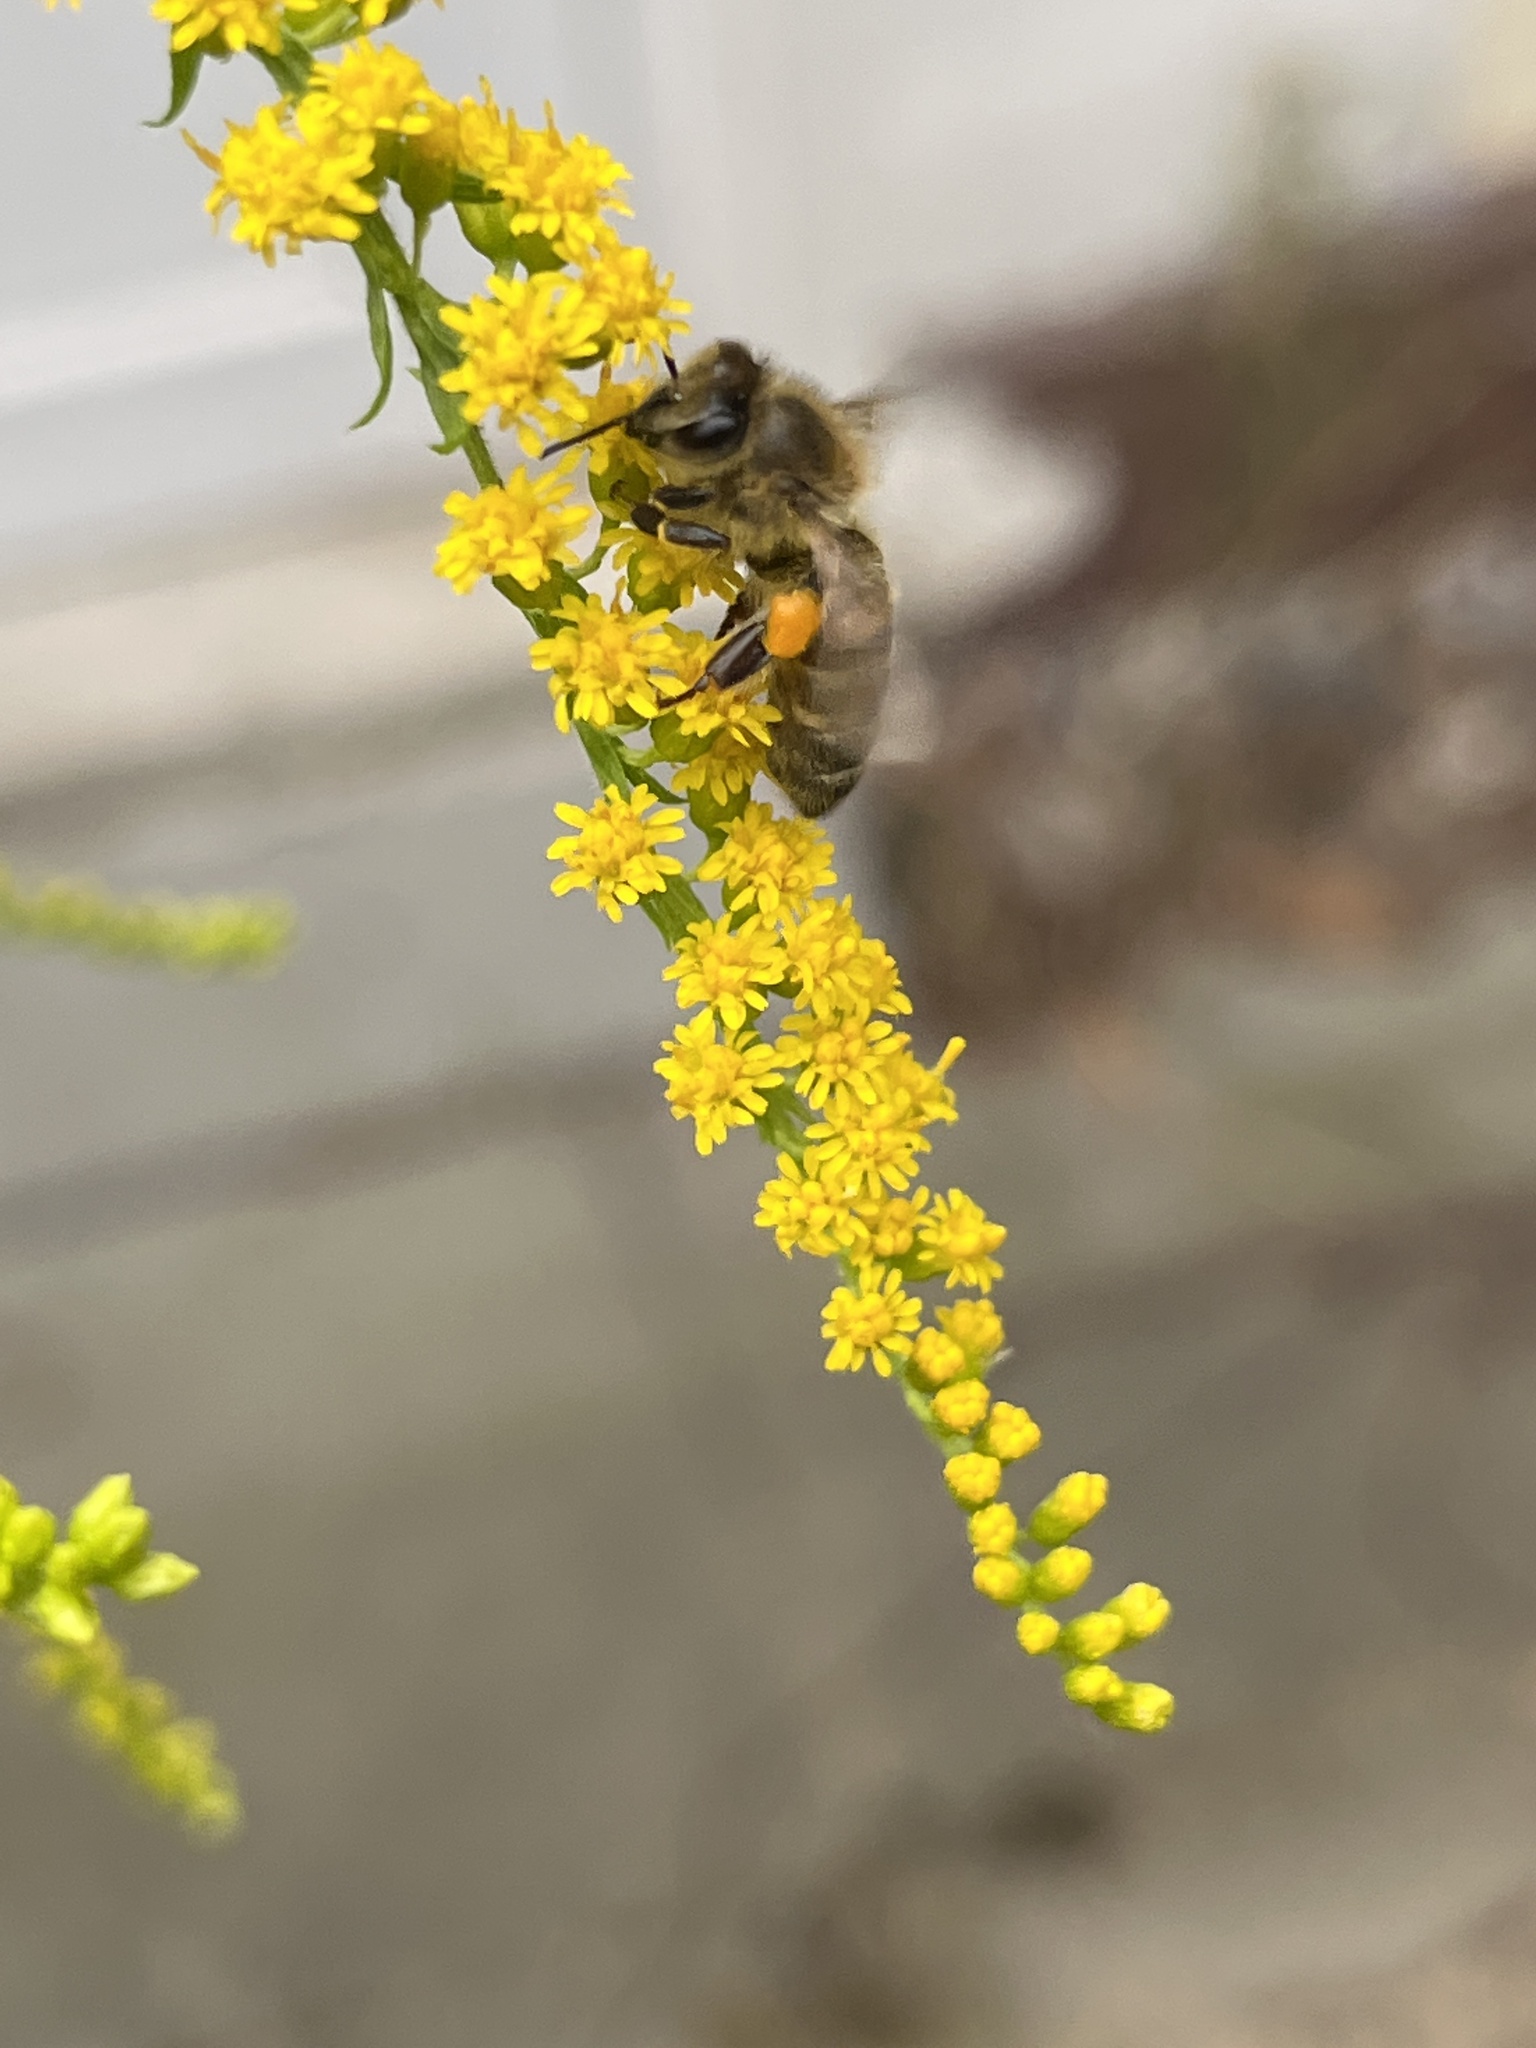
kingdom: Animalia
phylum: Arthropoda
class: Insecta
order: Hymenoptera
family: Apidae
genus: Apis
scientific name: Apis mellifera
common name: Honey bee
